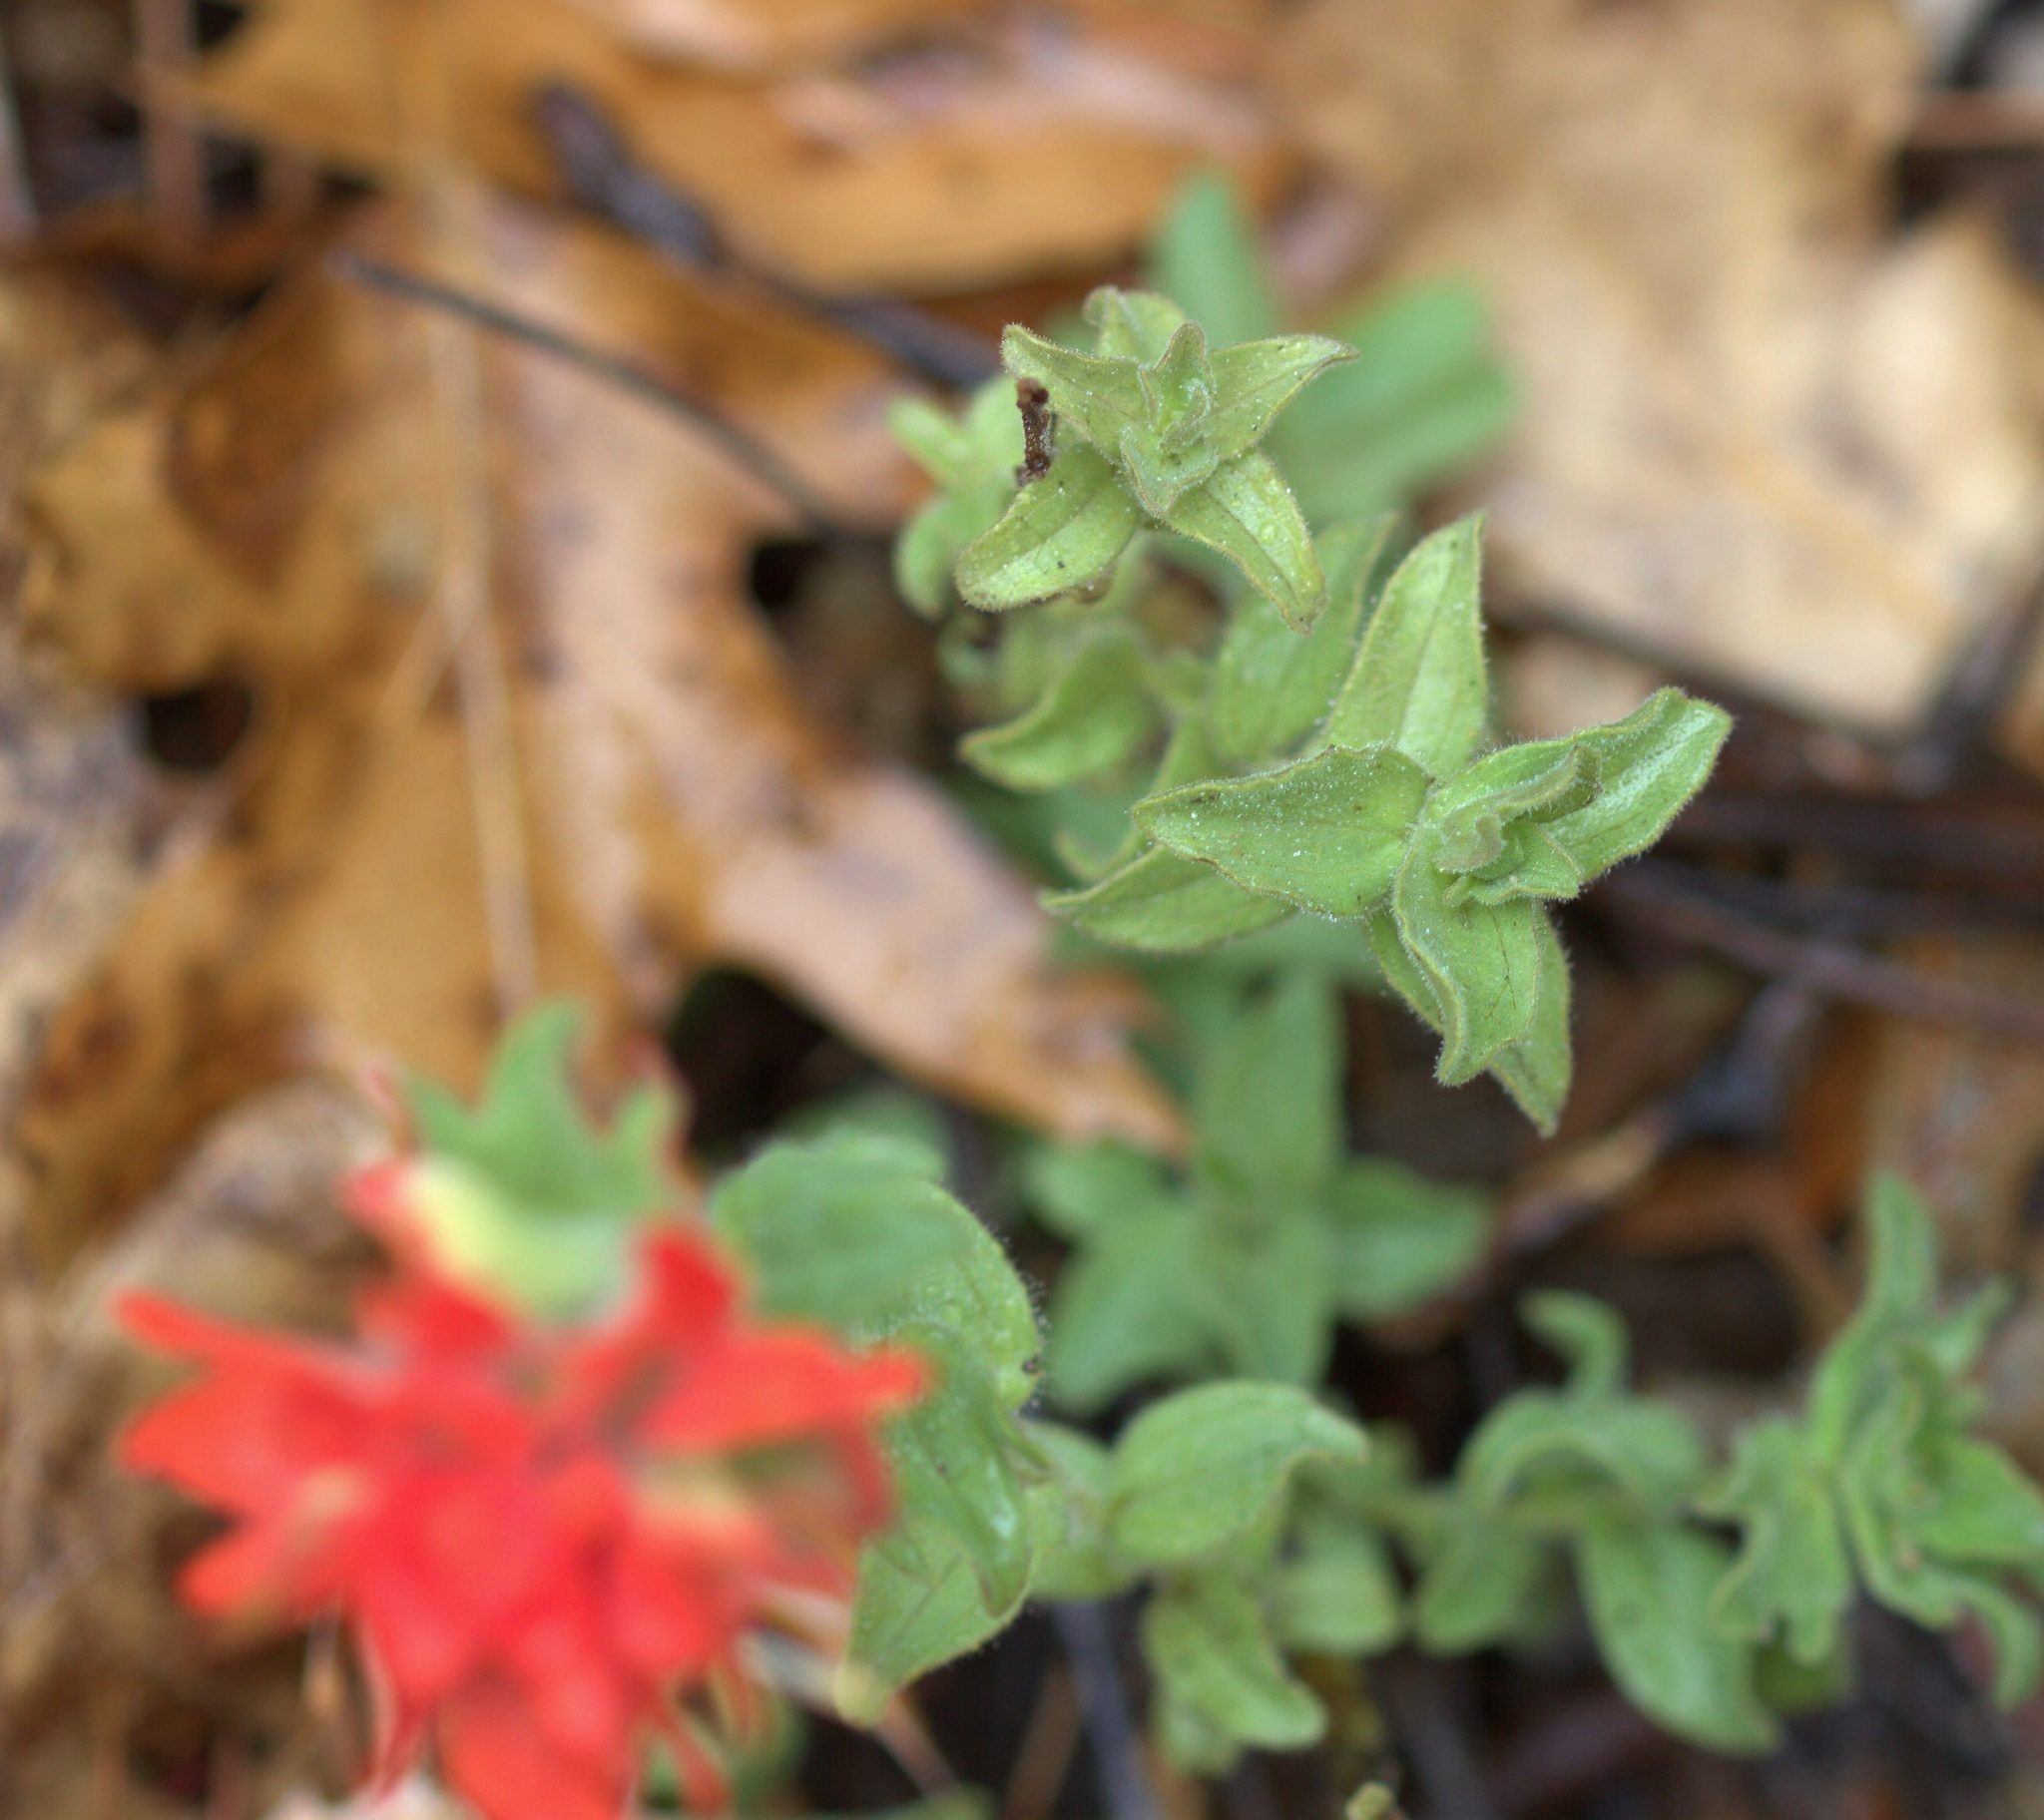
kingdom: Plantae
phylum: Tracheophyta
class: Magnoliopsida
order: Lamiales
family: Orobanchaceae
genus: Castilleja
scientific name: Castilleja martini
